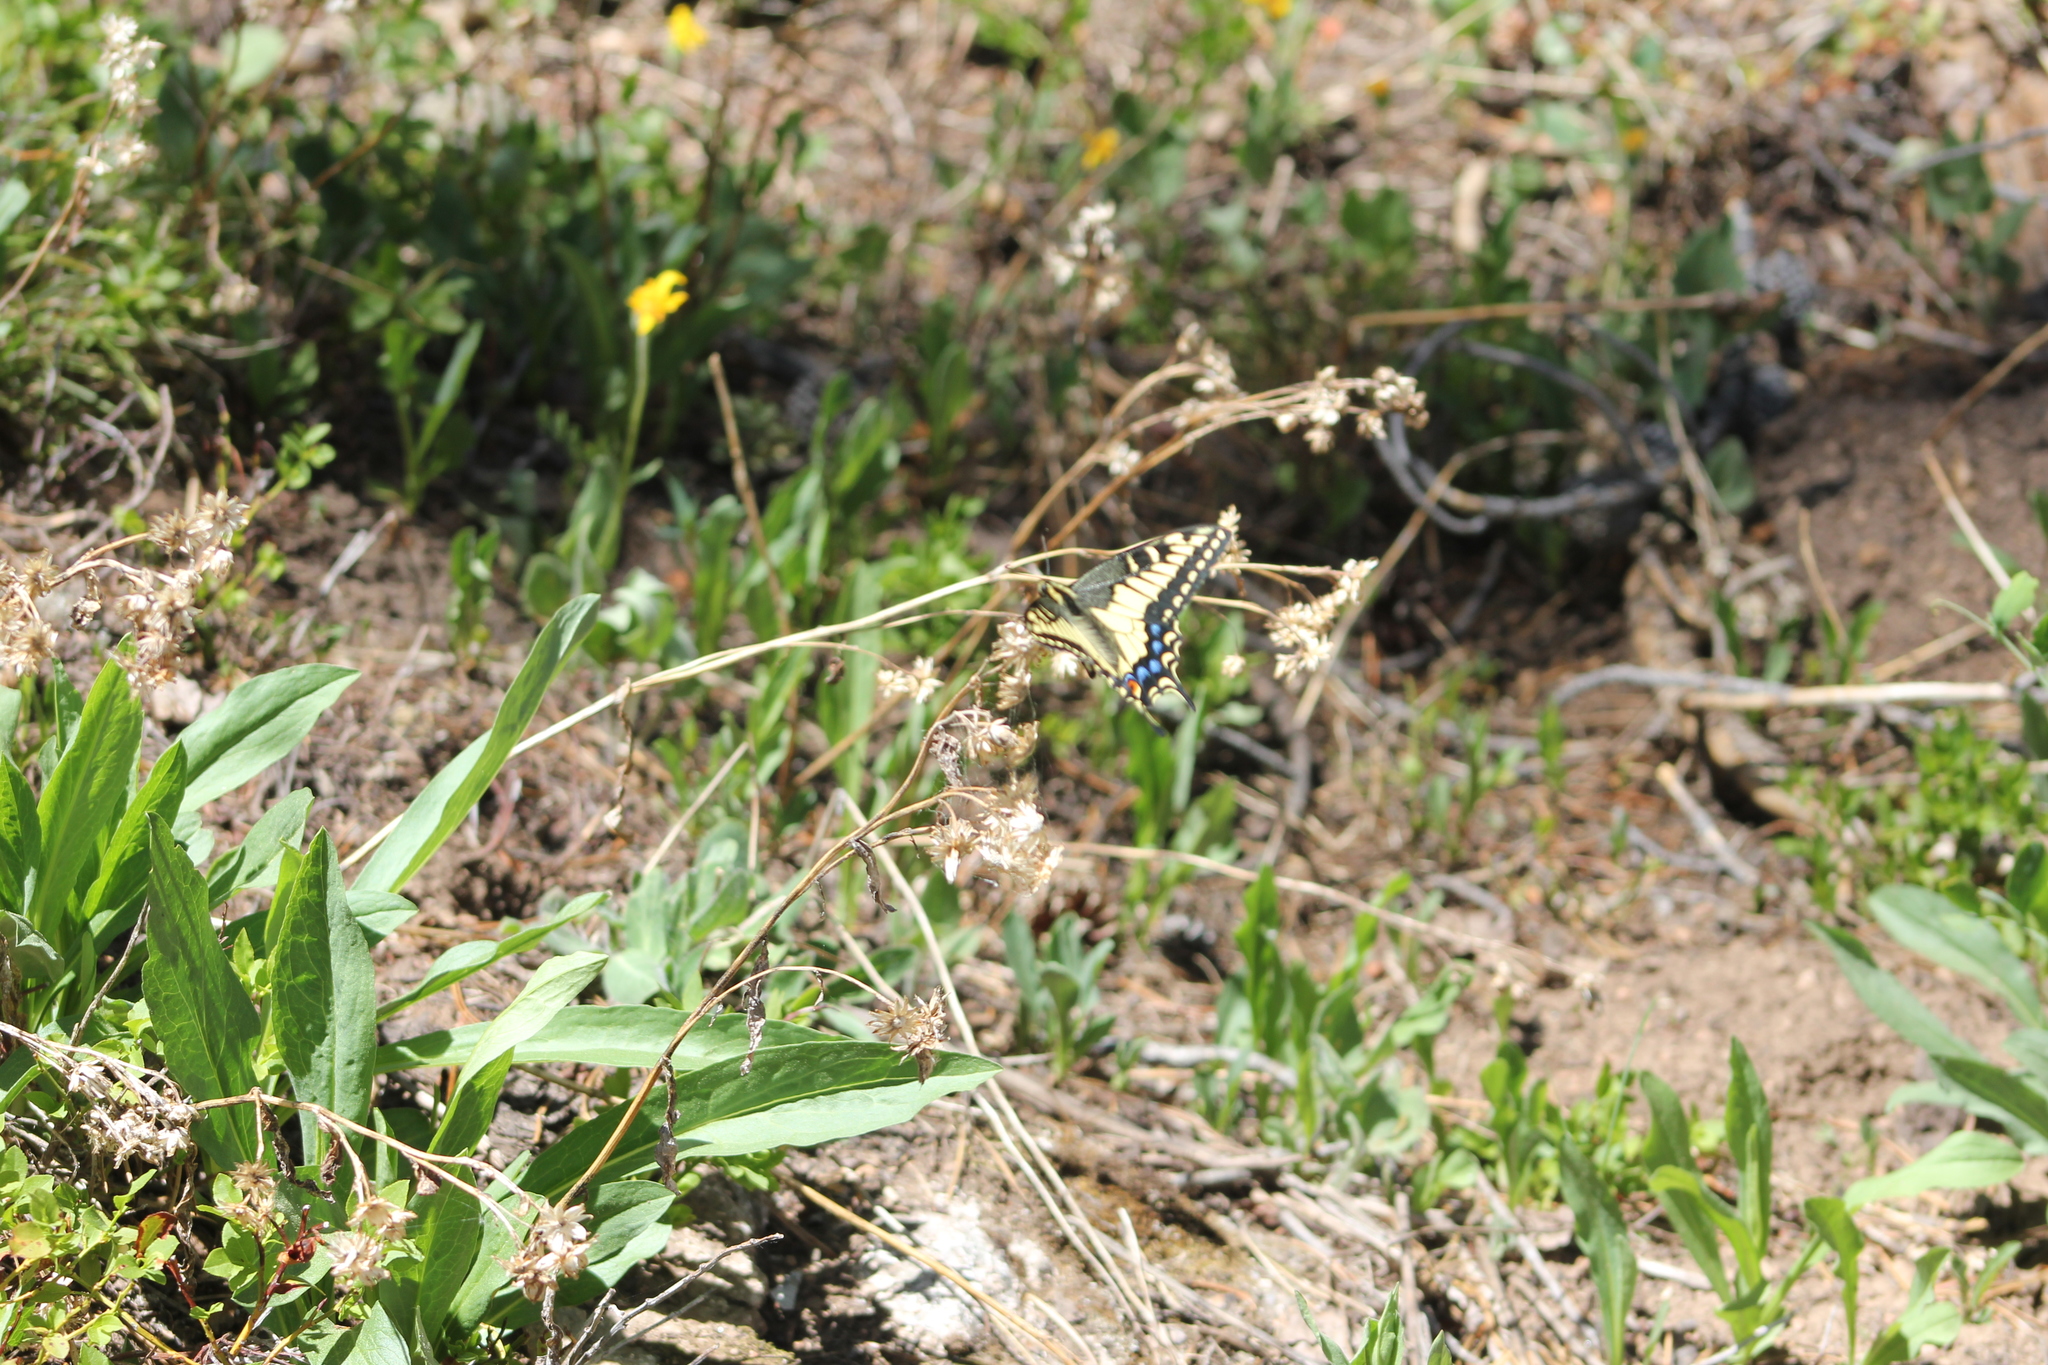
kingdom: Animalia
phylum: Arthropoda
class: Insecta
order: Lepidoptera
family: Papilionidae
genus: Papilio
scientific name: Papilio zelicaon
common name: Anise swallowtail
